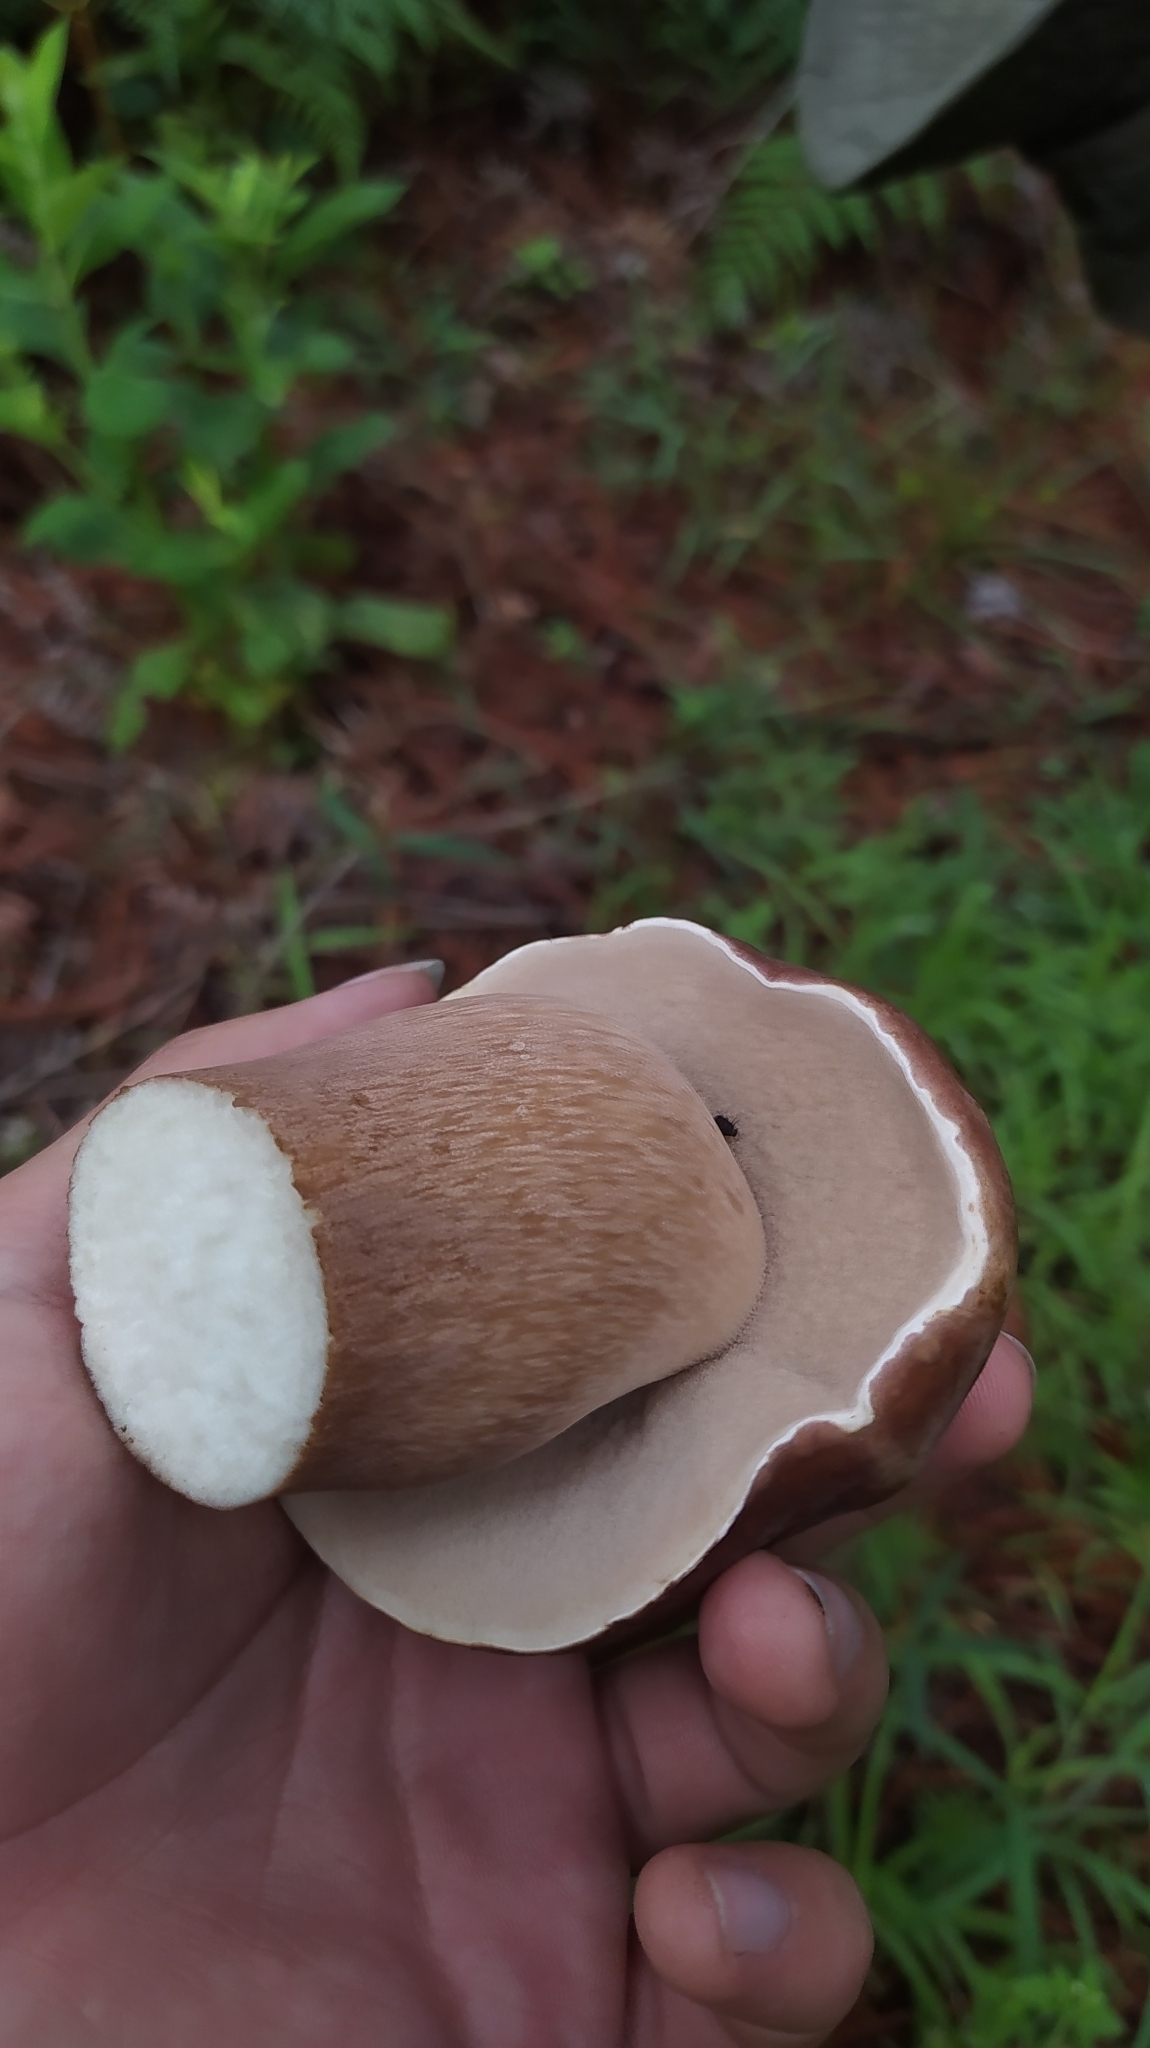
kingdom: Fungi
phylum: Basidiomycota
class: Agaricomycetes
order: Boletales
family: Boletaceae
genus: Boletus
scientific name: Boletus quercophilus
